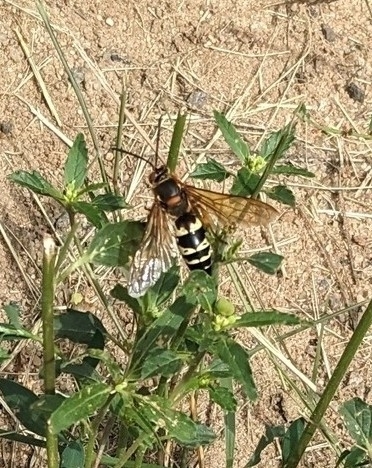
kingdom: Animalia
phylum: Arthropoda
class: Insecta
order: Hymenoptera
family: Crabronidae
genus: Sphecius
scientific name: Sphecius speciosus
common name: Cicada killer
